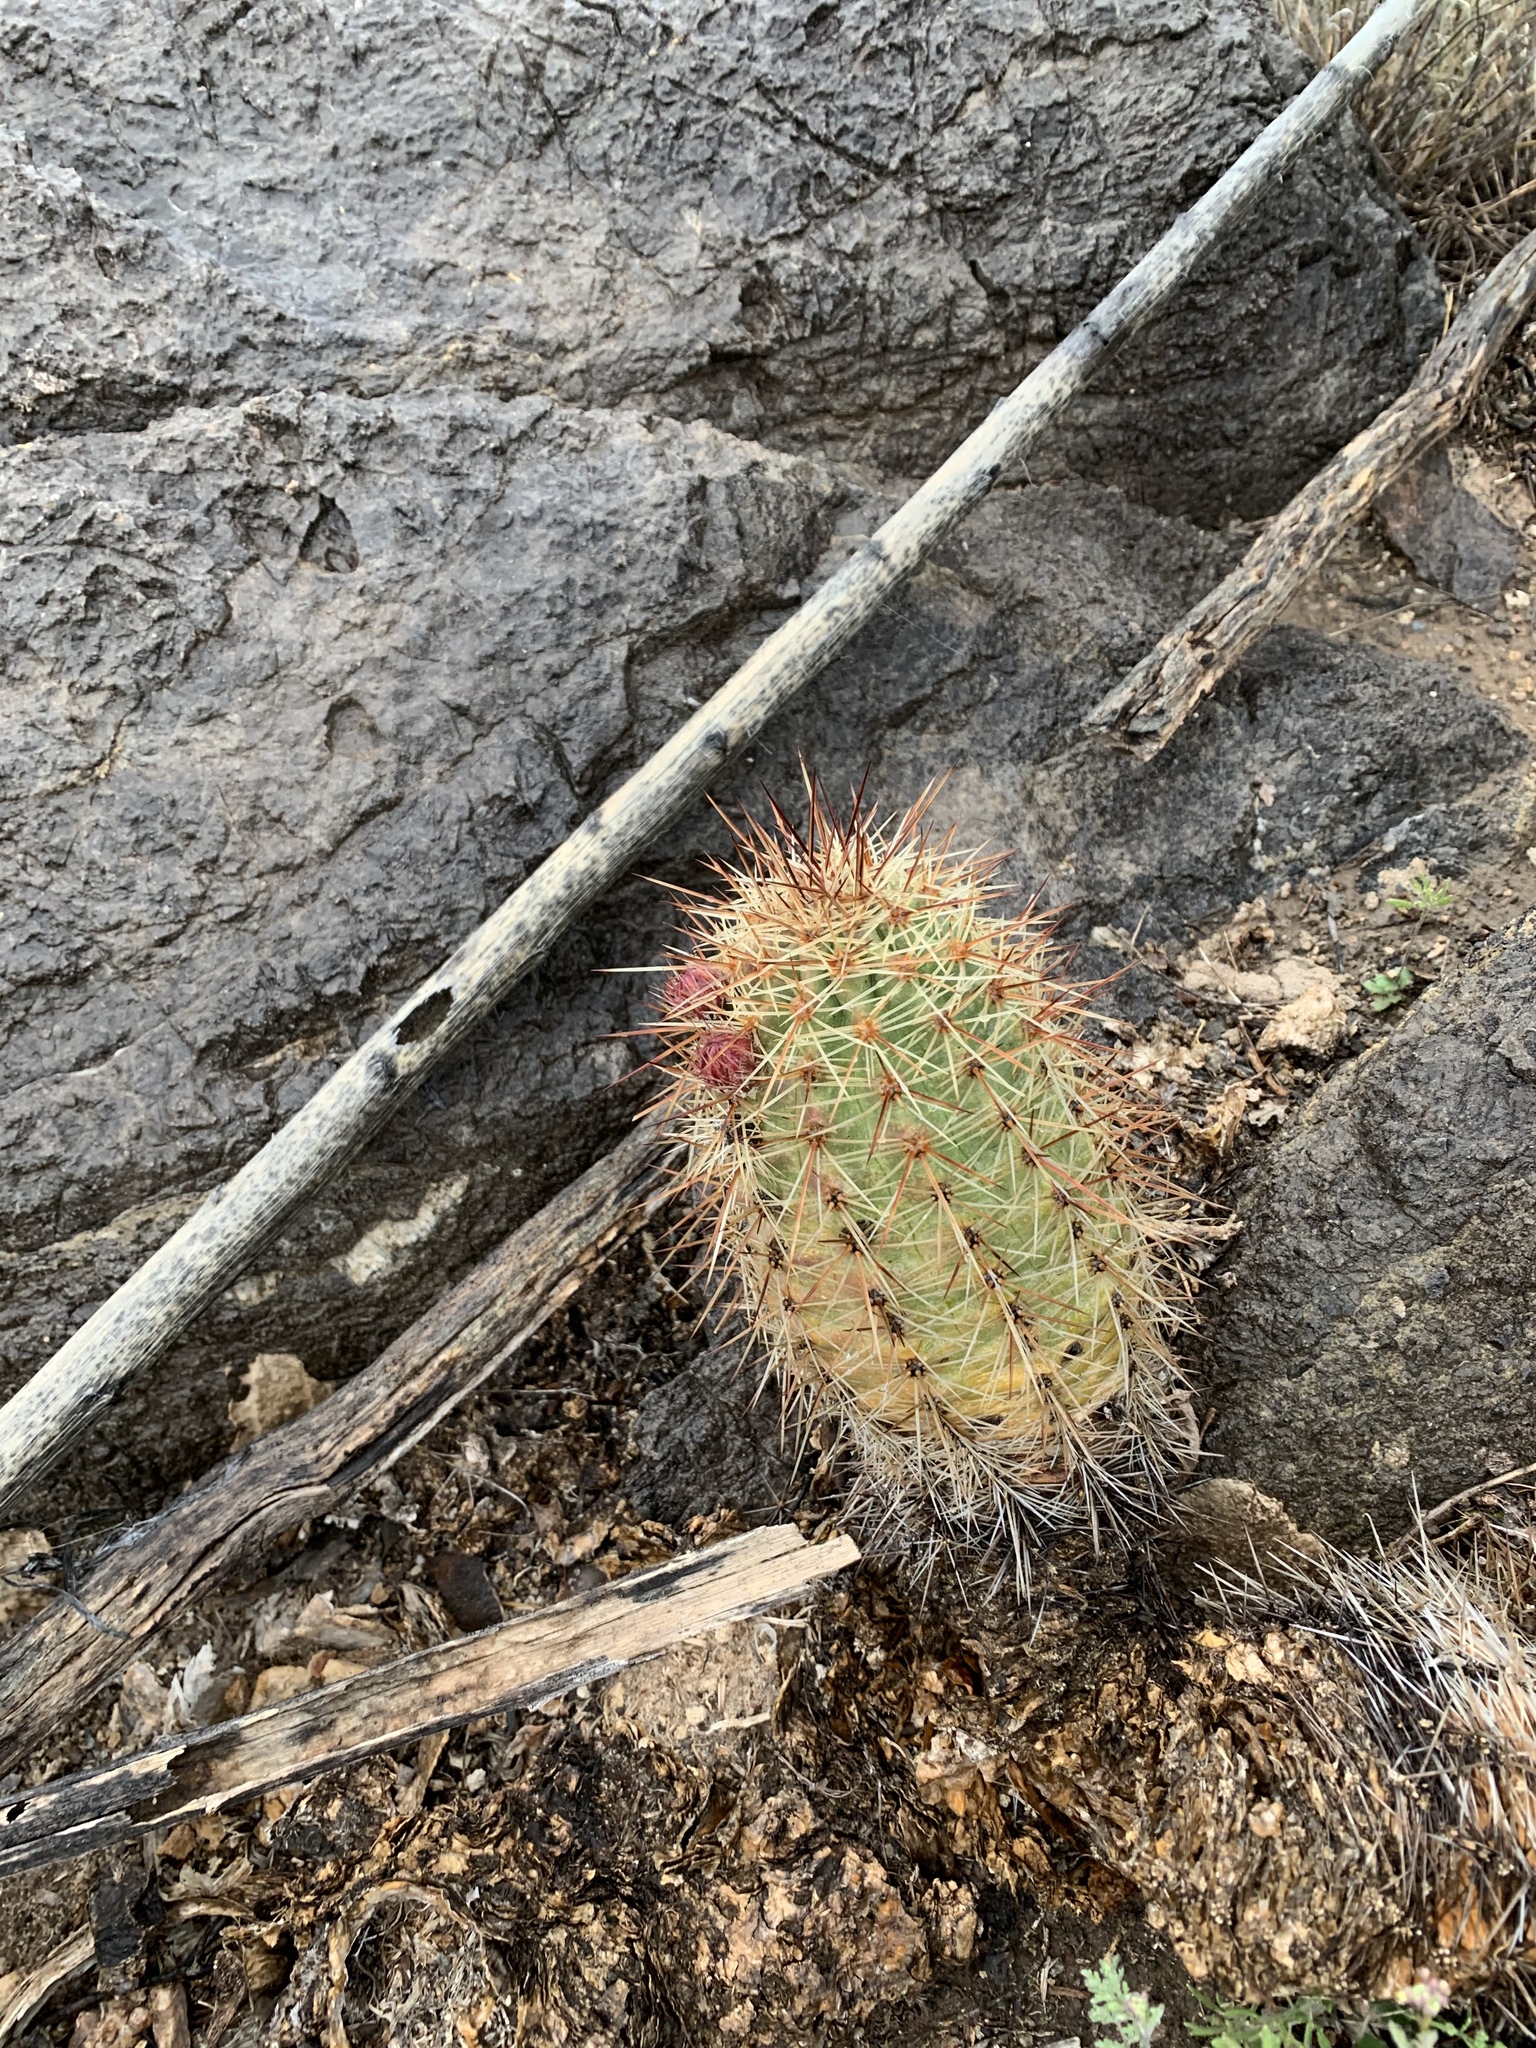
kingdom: Plantae
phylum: Tracheophyta
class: Magnoliopsida
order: Caryophyllales
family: Cactaceae
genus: Echinocereus
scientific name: Echinocereus coccineus
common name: Scarlet hedgehog cactus
